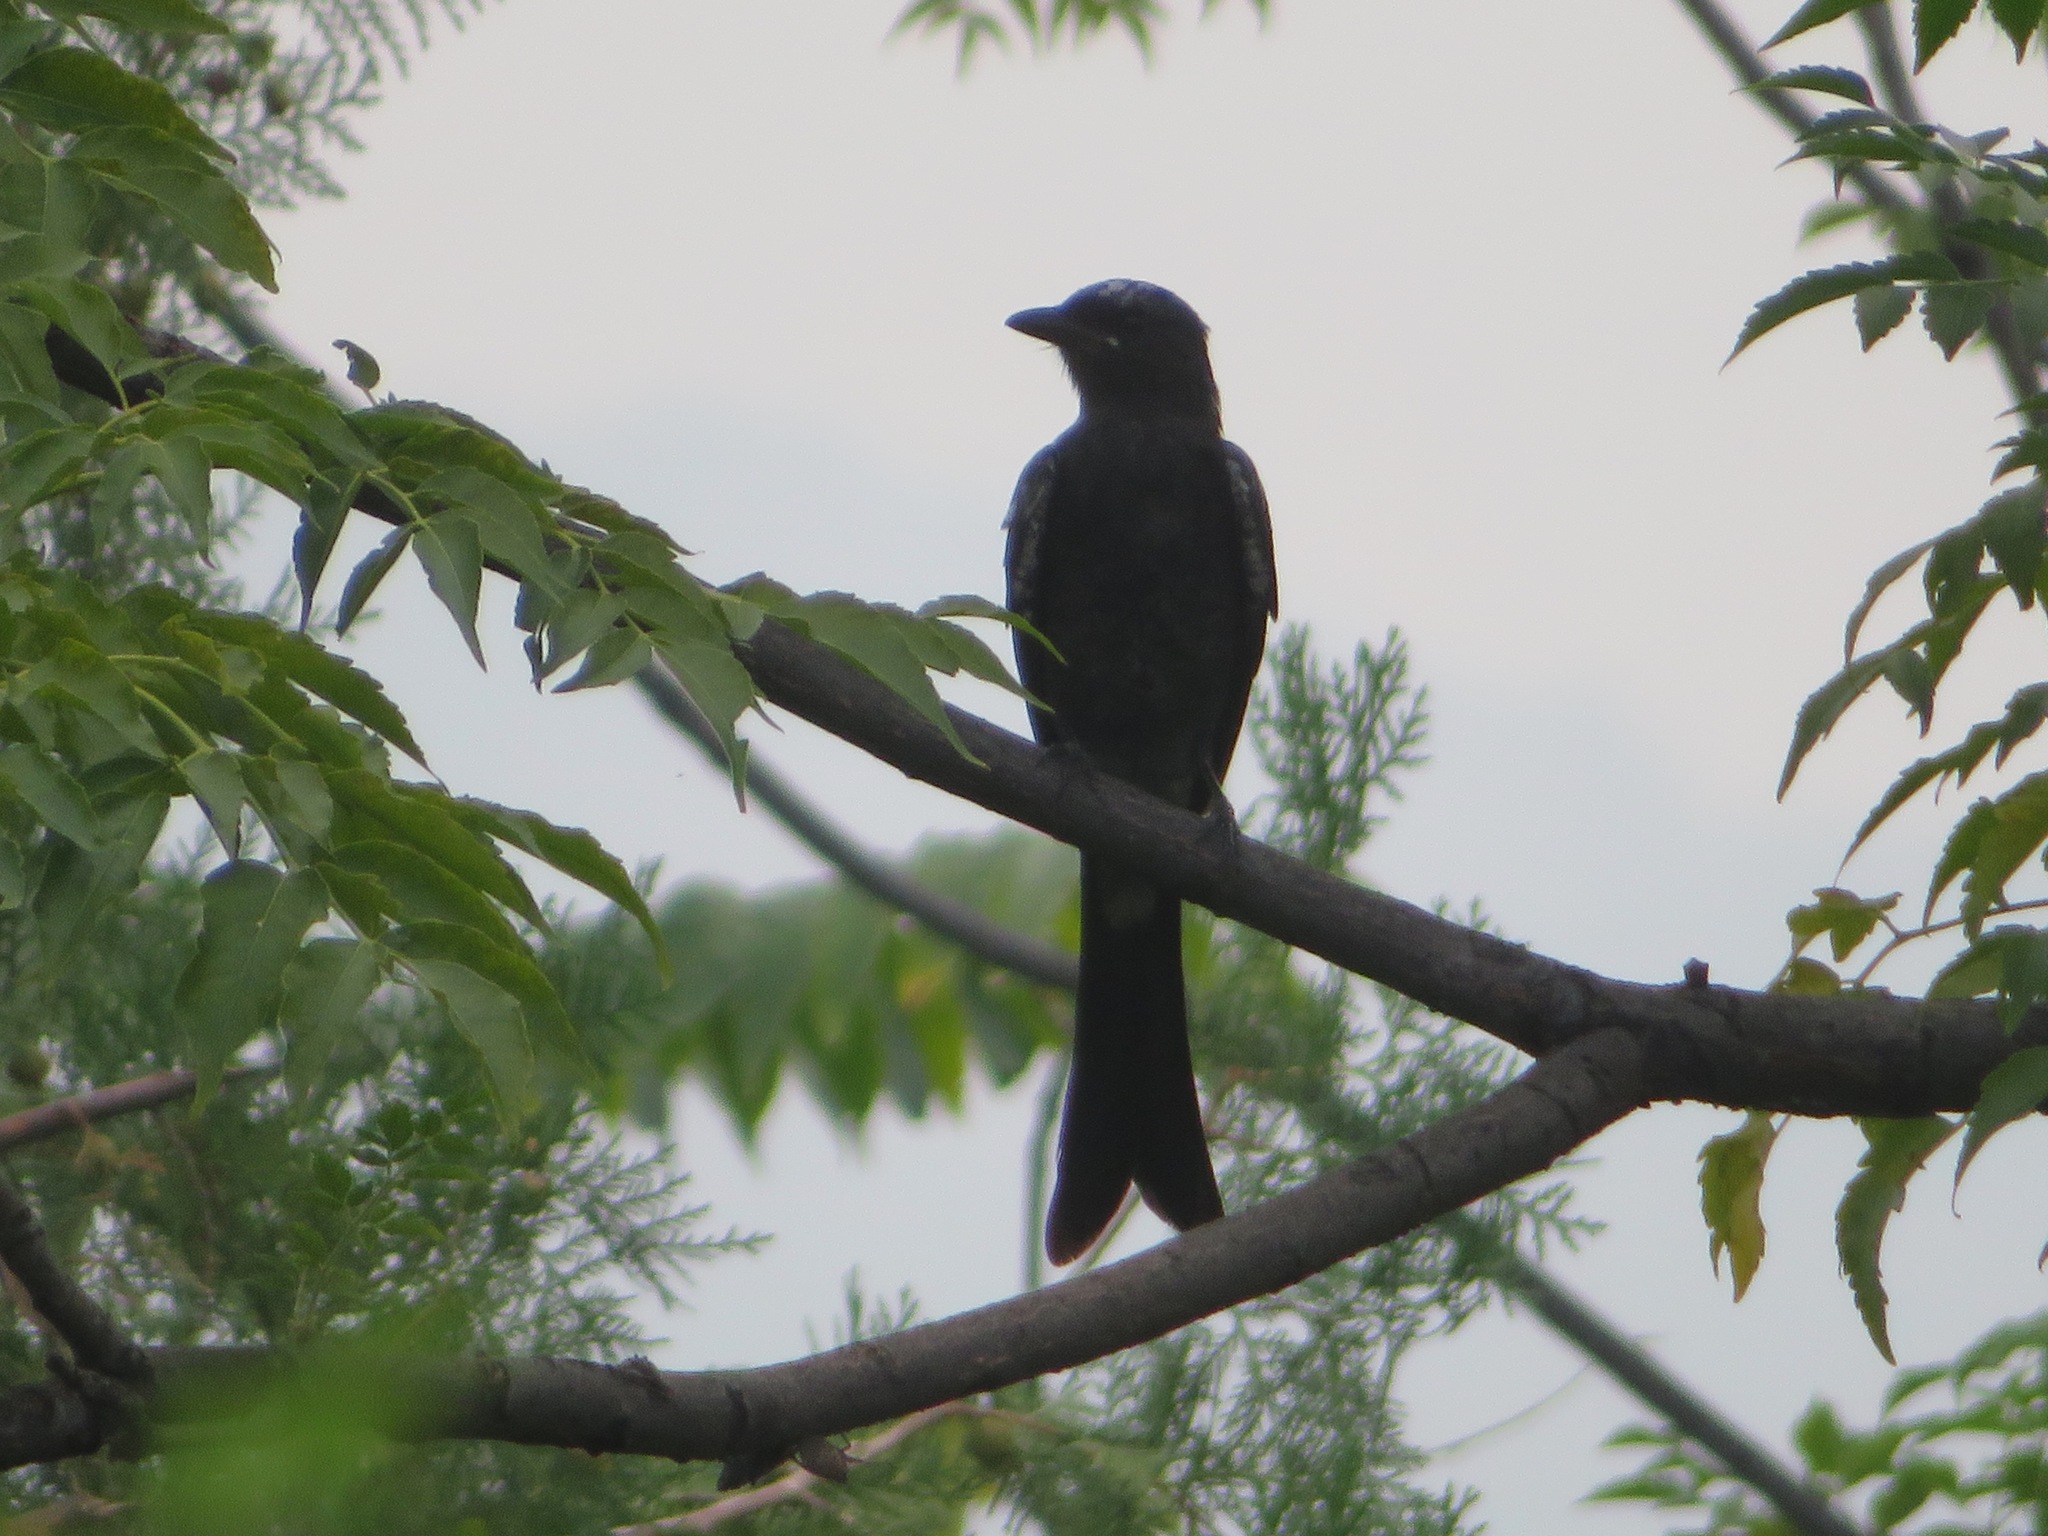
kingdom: Animalia
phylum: Chordata
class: Aves
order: Passeriformes
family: Dicruridae
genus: Dicrurus
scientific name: Dicrurus macrocercus
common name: Black drongo
